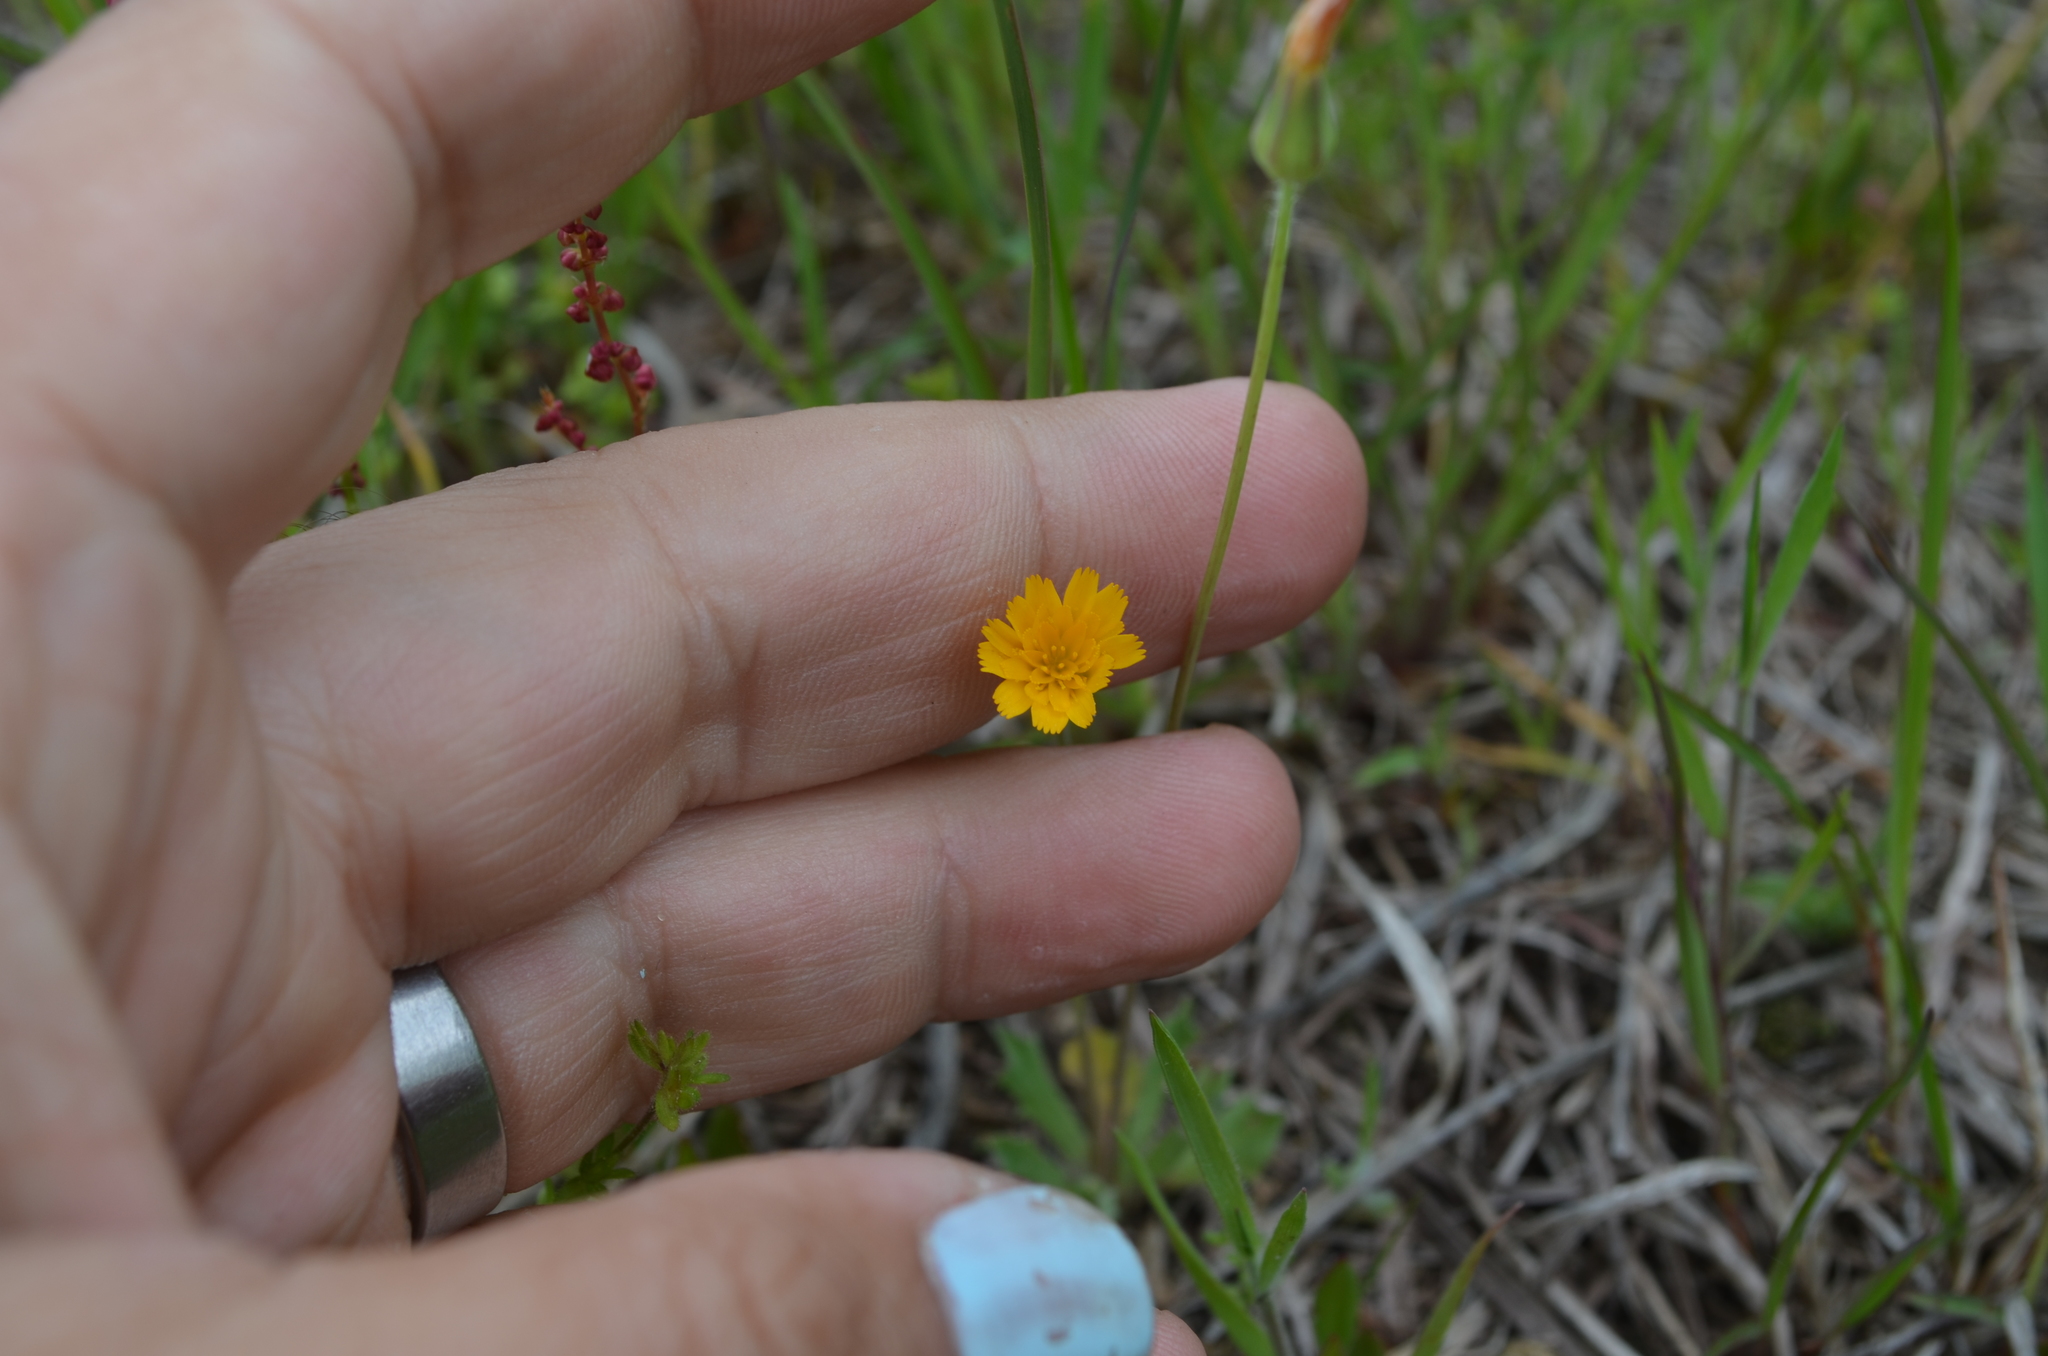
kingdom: Plantae
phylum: Tracheophyta
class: Magnoliopsida
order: Asterales
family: Asteraceae
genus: Krigia
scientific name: Krigia virginica
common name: Virginia dwarf-dandelion
